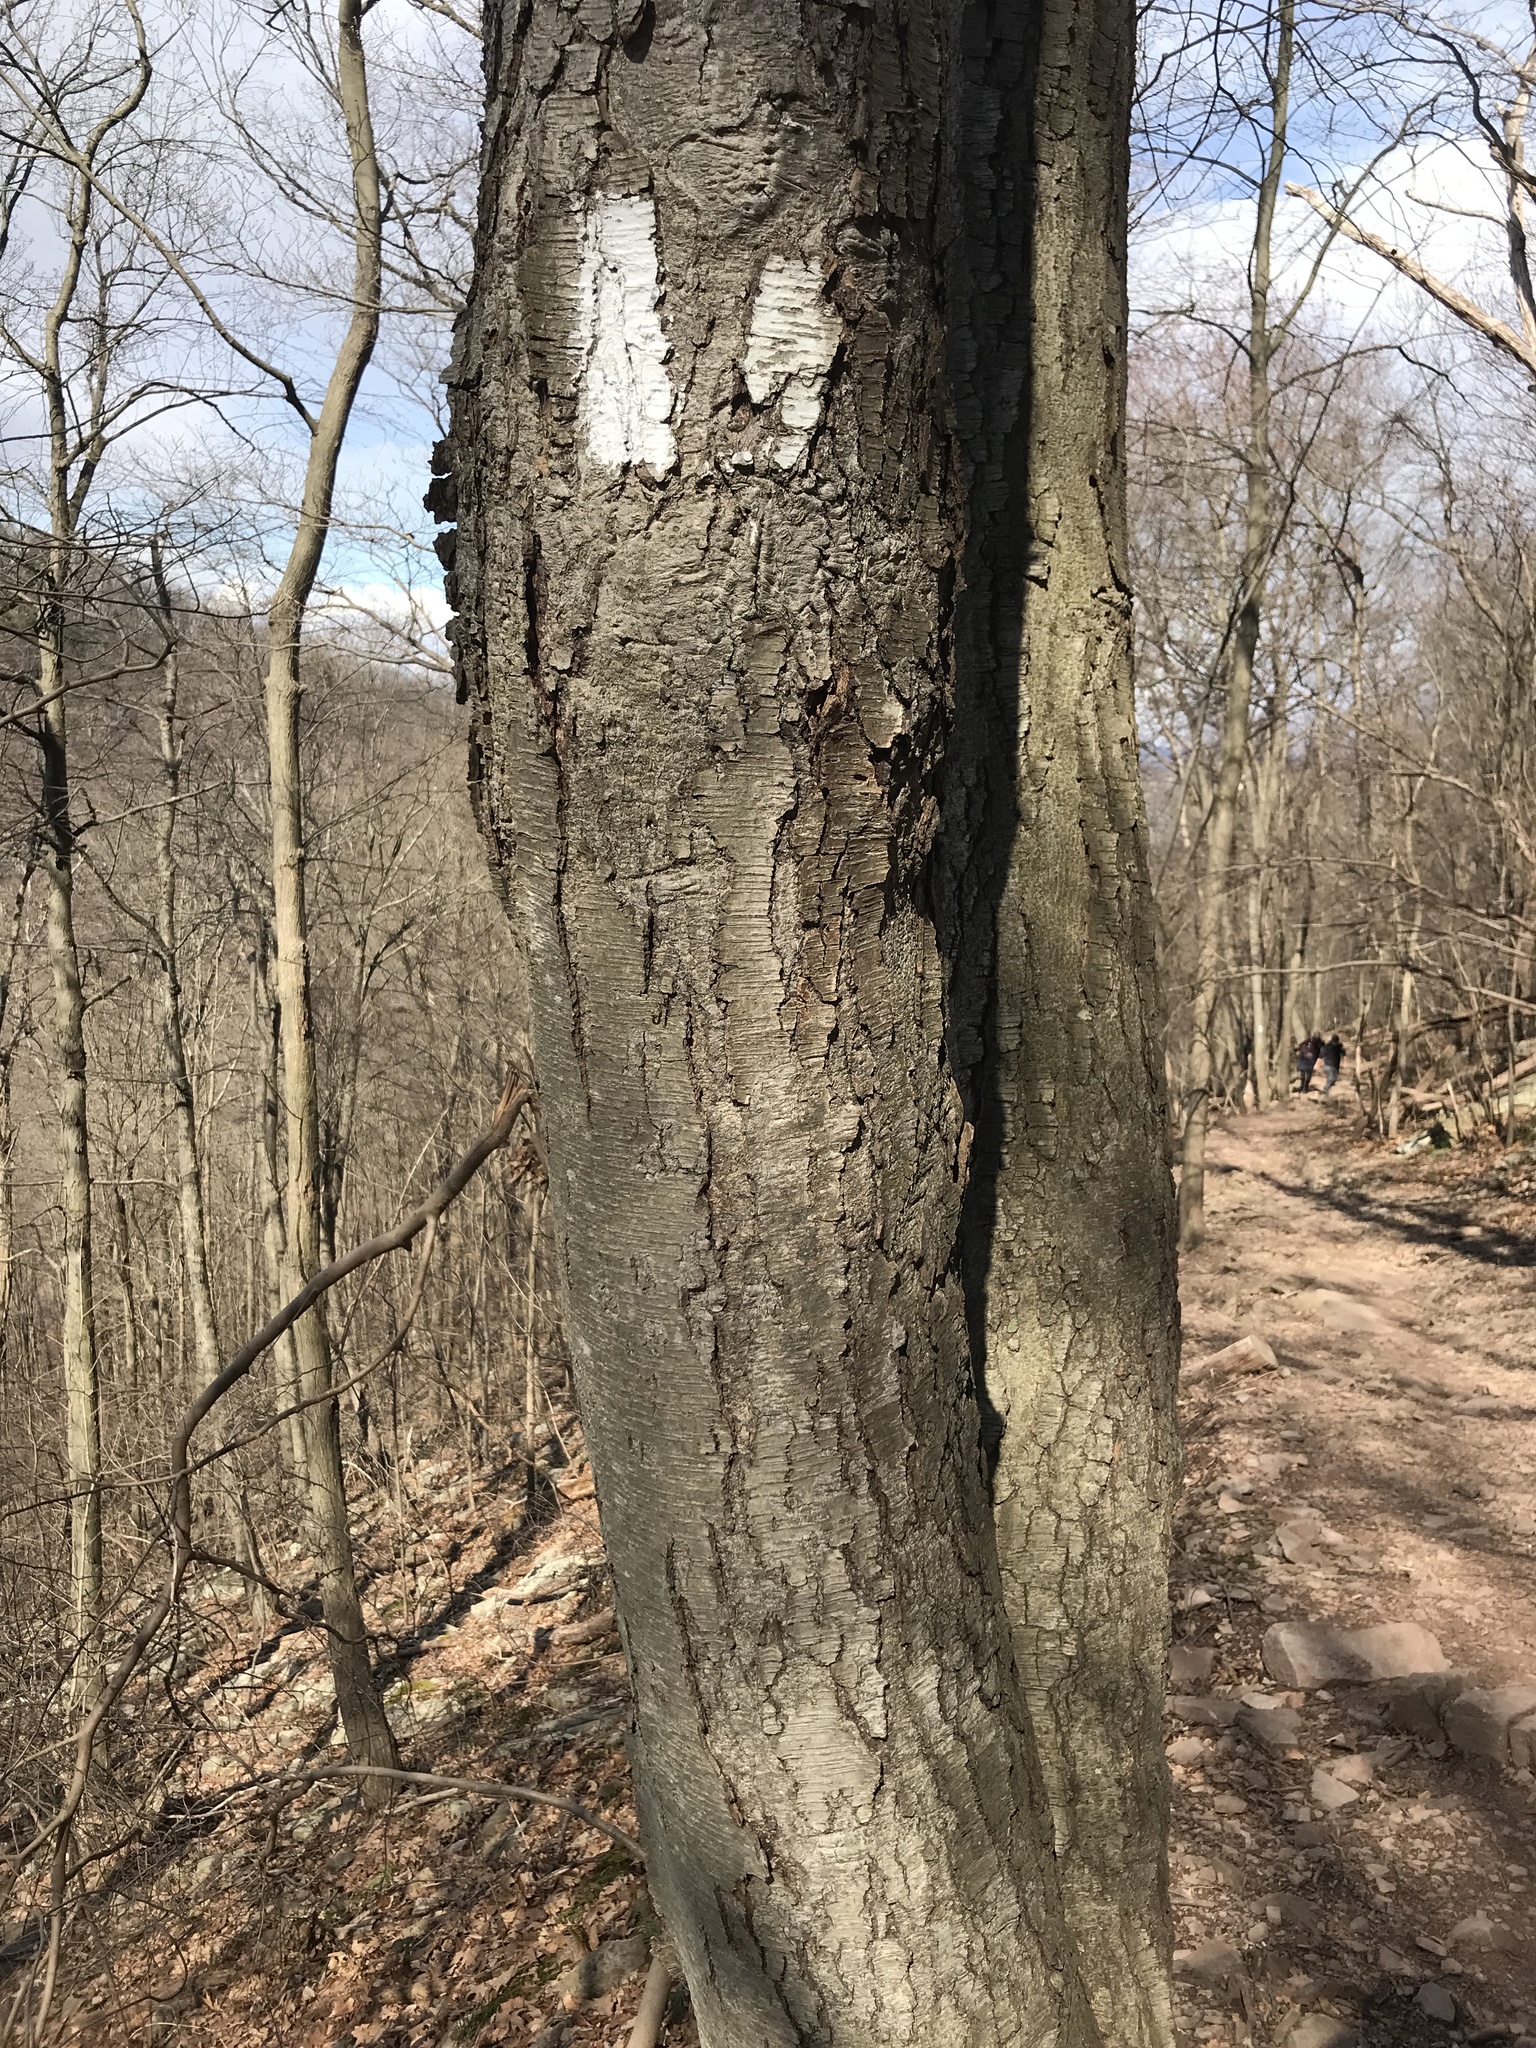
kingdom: Plantae
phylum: Tracheophyta
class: Magnoliopsida
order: Fagales
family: Betulaceae
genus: Betula
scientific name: Betula lenta
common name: Black birch
